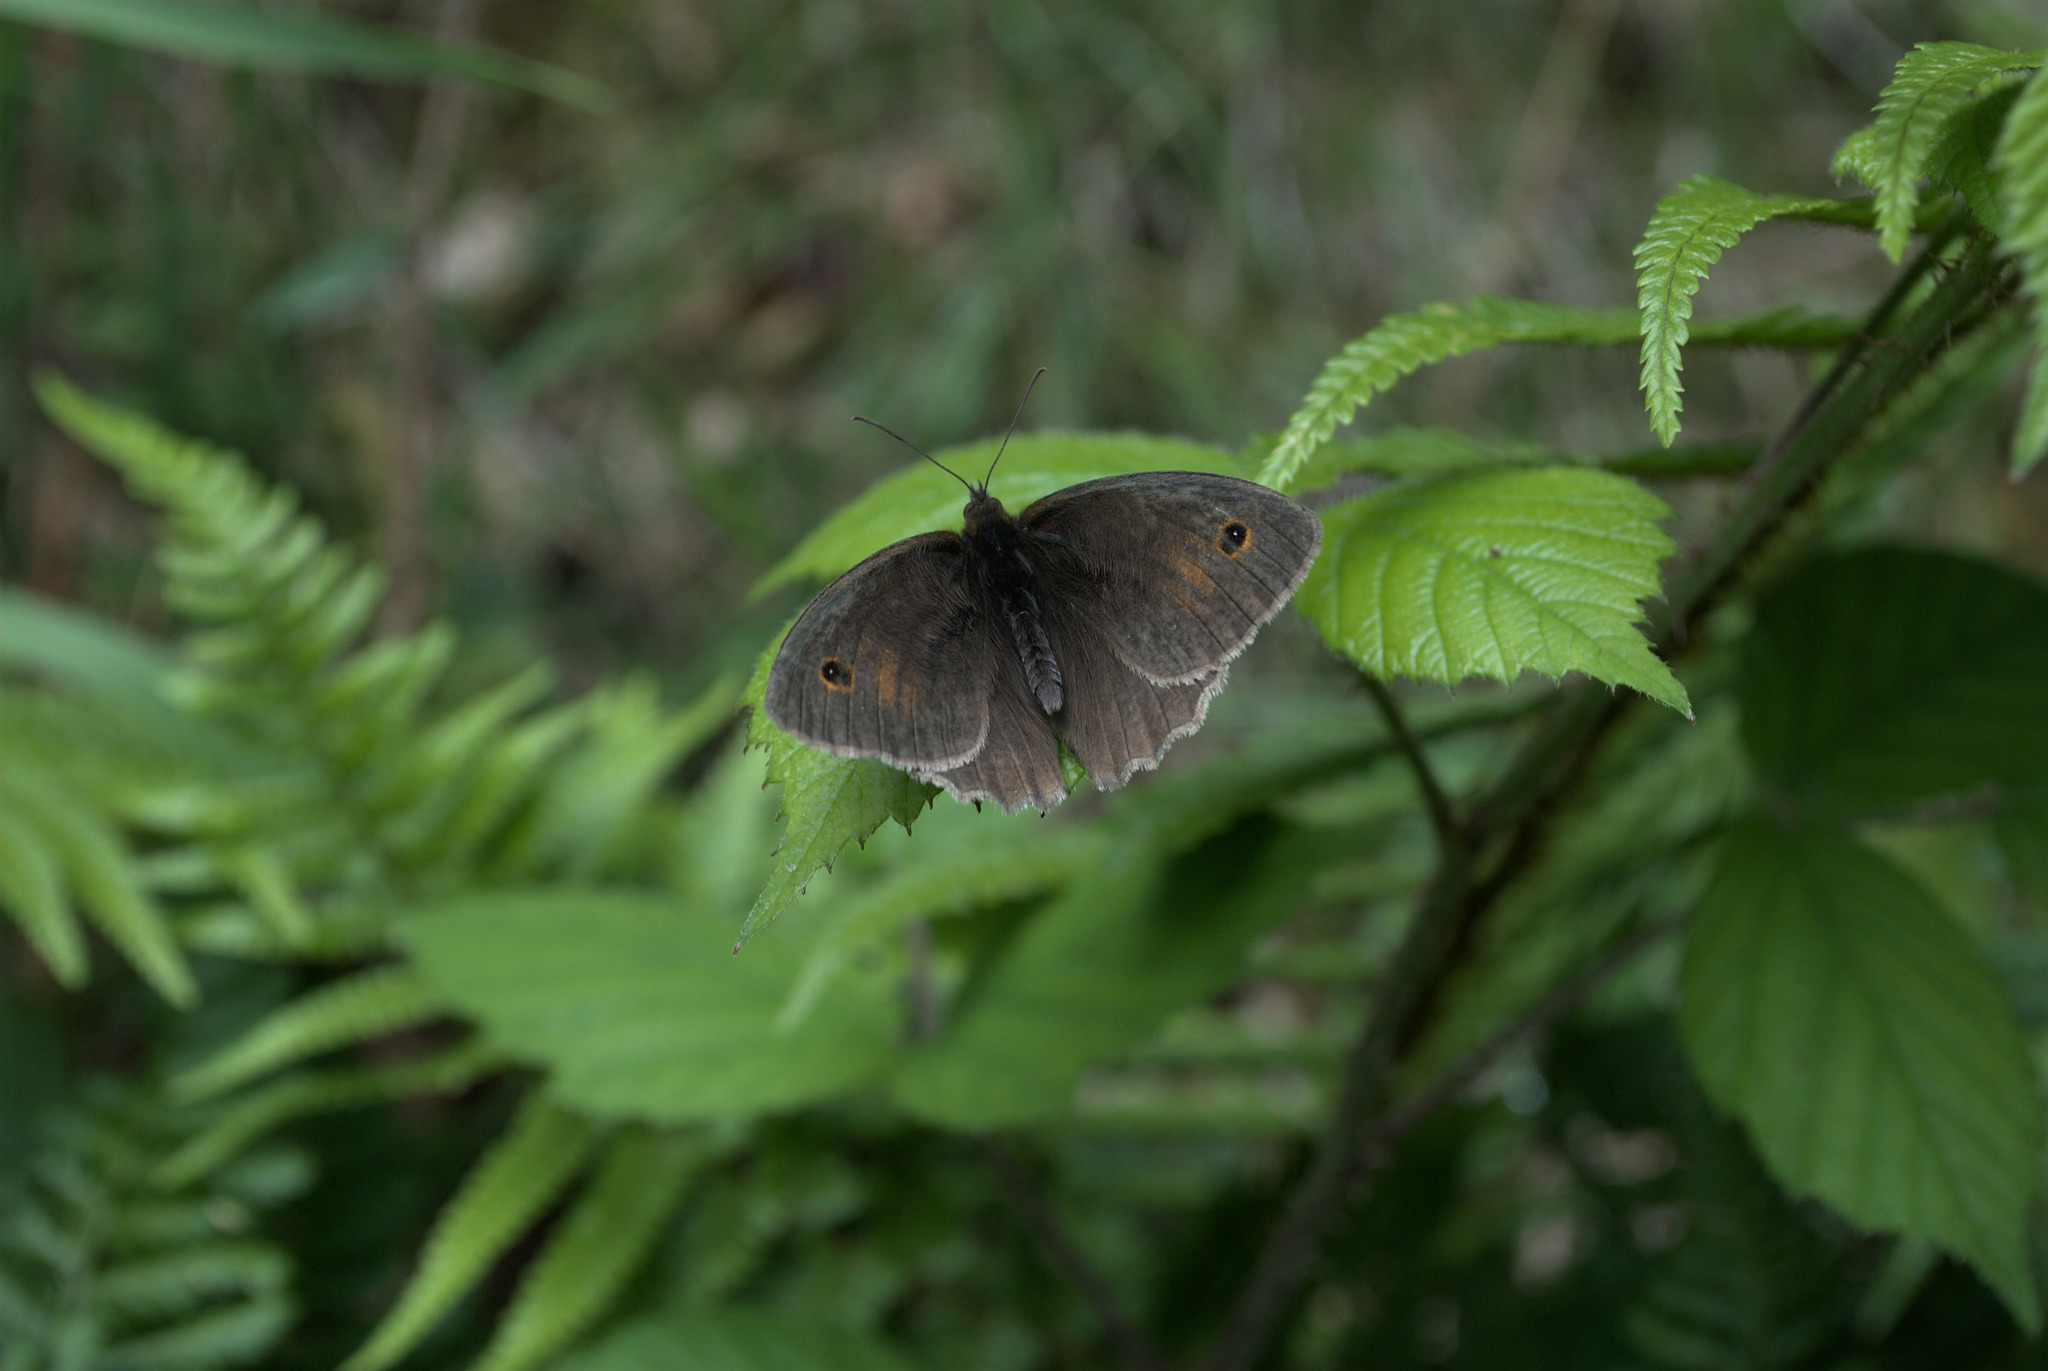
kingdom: Animalia
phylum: Arthropoda
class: Insecta
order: Lepidoptera
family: Nymphalidae
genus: Maniola
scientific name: Maniola jurtina
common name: Meadow brown
